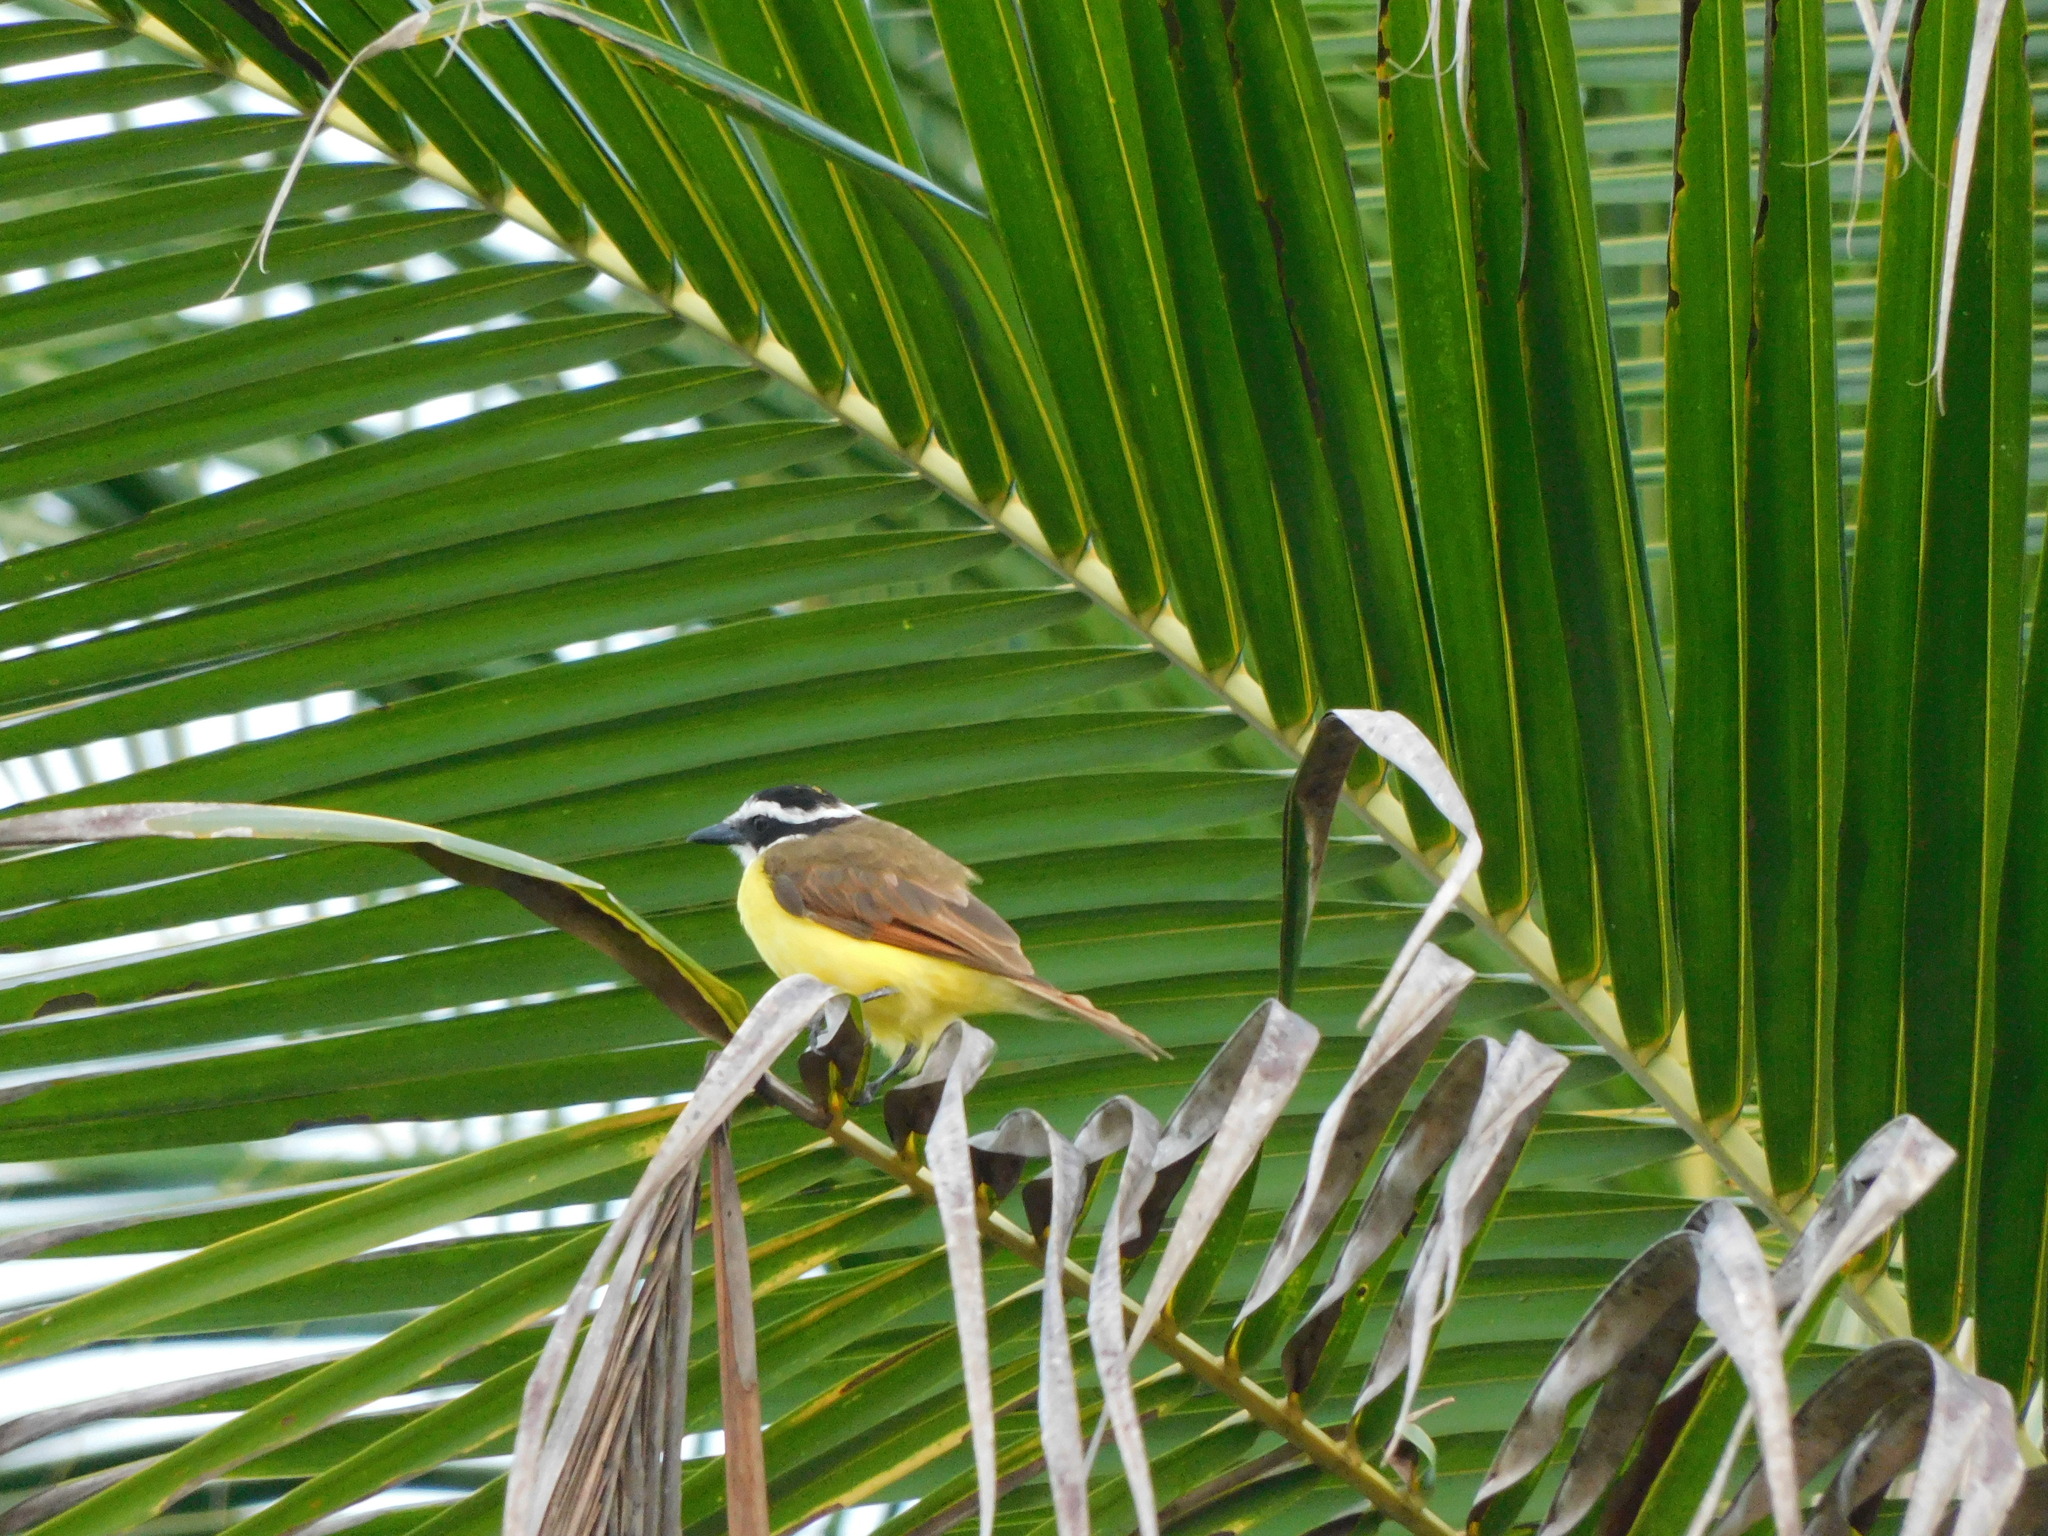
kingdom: Animalia
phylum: Chordata
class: Aves
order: Passeriformes
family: Tyrannidae
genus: Pitangus
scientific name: Pitangus sulphuratus
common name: Great kiskadee
